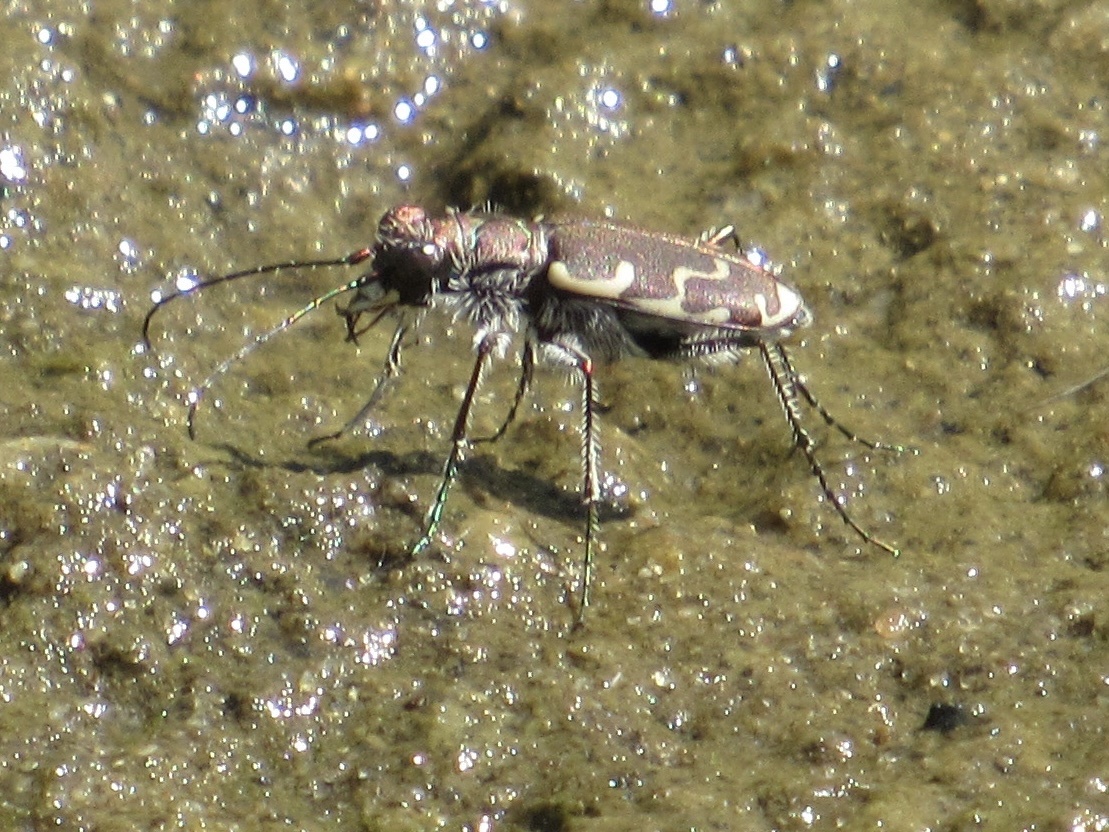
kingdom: Animalia
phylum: Arthropoda
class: Insecta
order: Coleoptera
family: Carabidae
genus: Cicindela
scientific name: Cicindela repanda
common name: Bronzed tiger beetle
